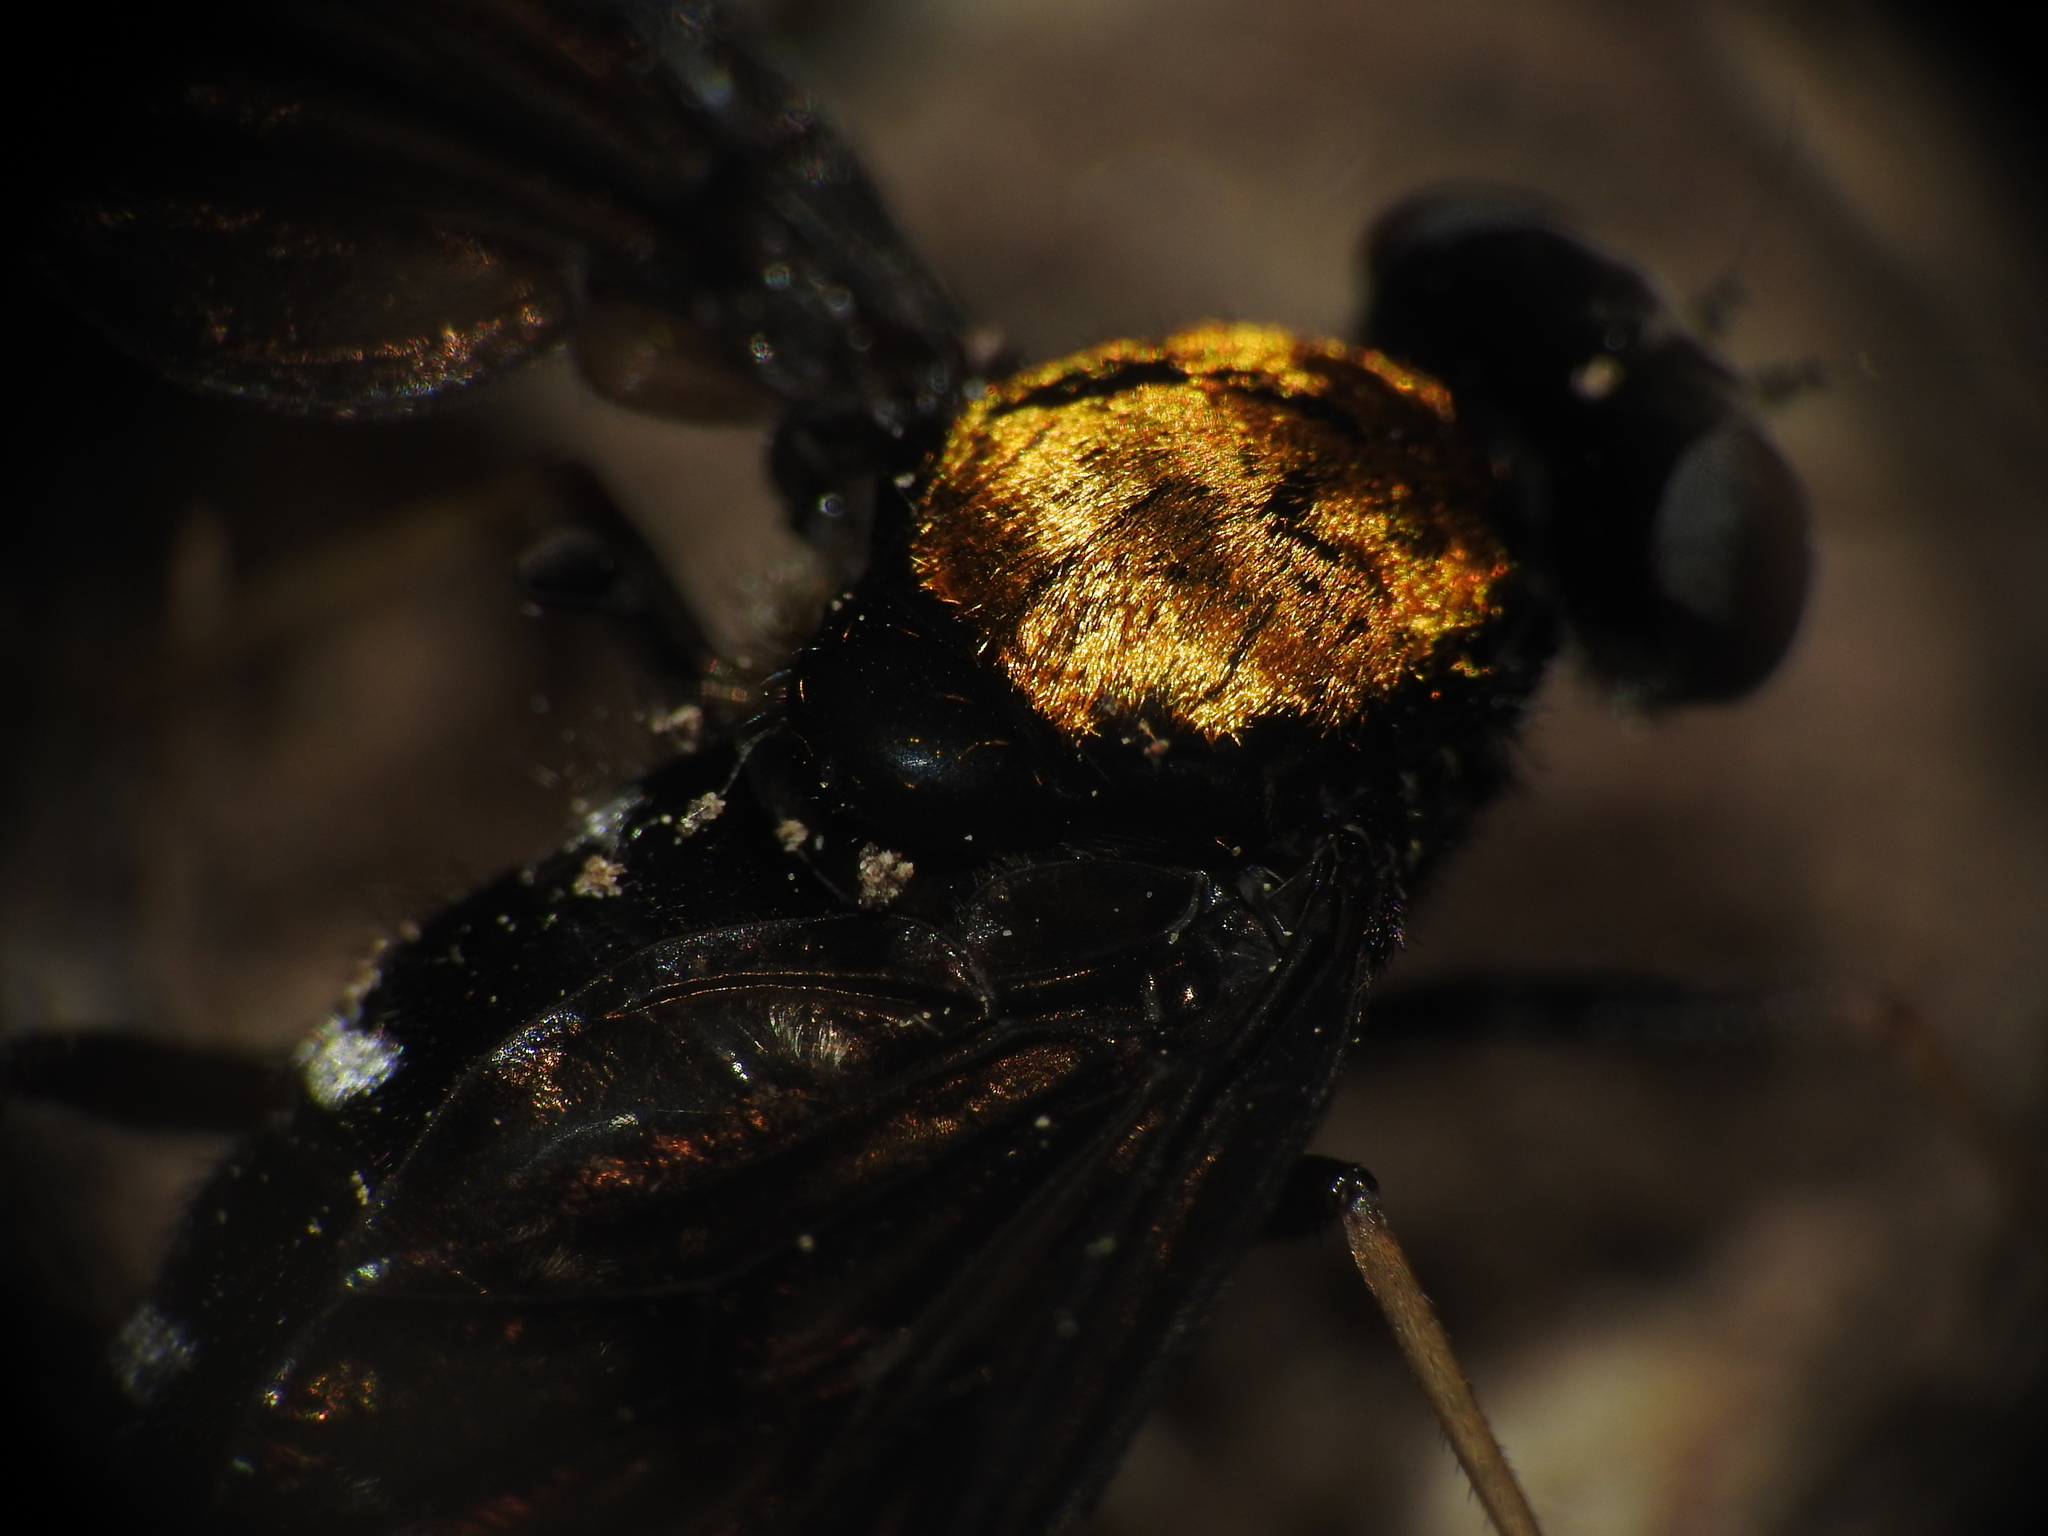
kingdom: Animalia
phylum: Arthropoda
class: Insecta
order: Diptera
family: Rhagionidae
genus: Chrysopilus
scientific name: Chrysopilus thoracicus
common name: Golden-backed snipe fly
